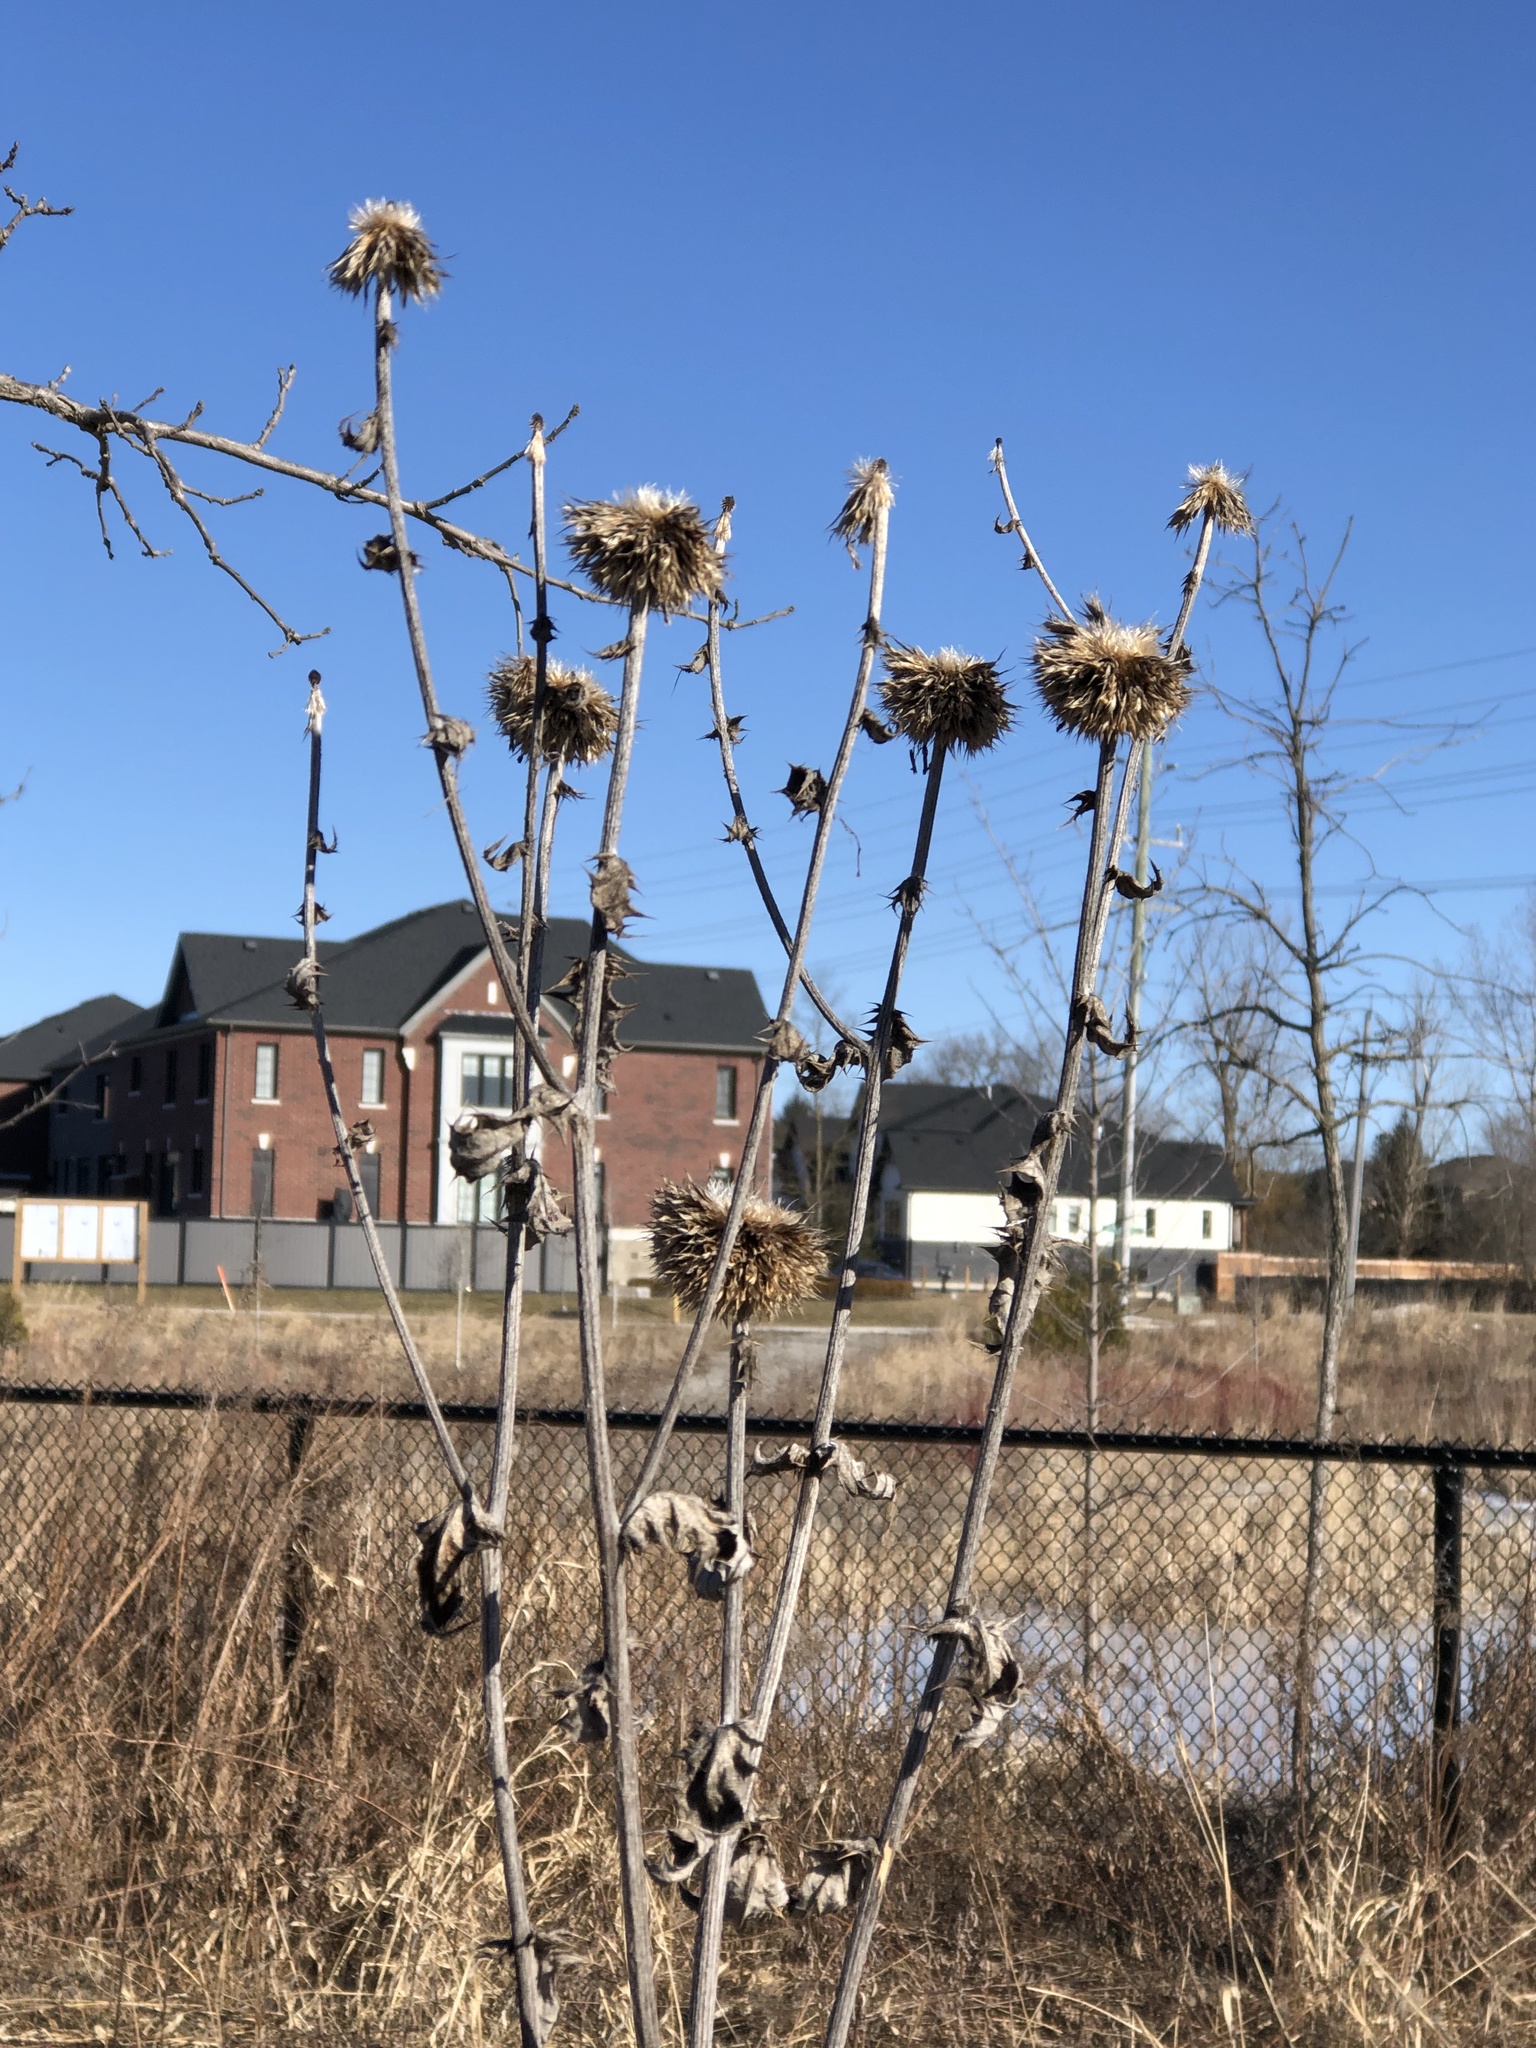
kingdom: Plantae
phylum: Tracheophyta
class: Magnoliopsida
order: Asterales
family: Asteraceae
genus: Carduus
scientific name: Carduus nutans
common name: Musk thistle
